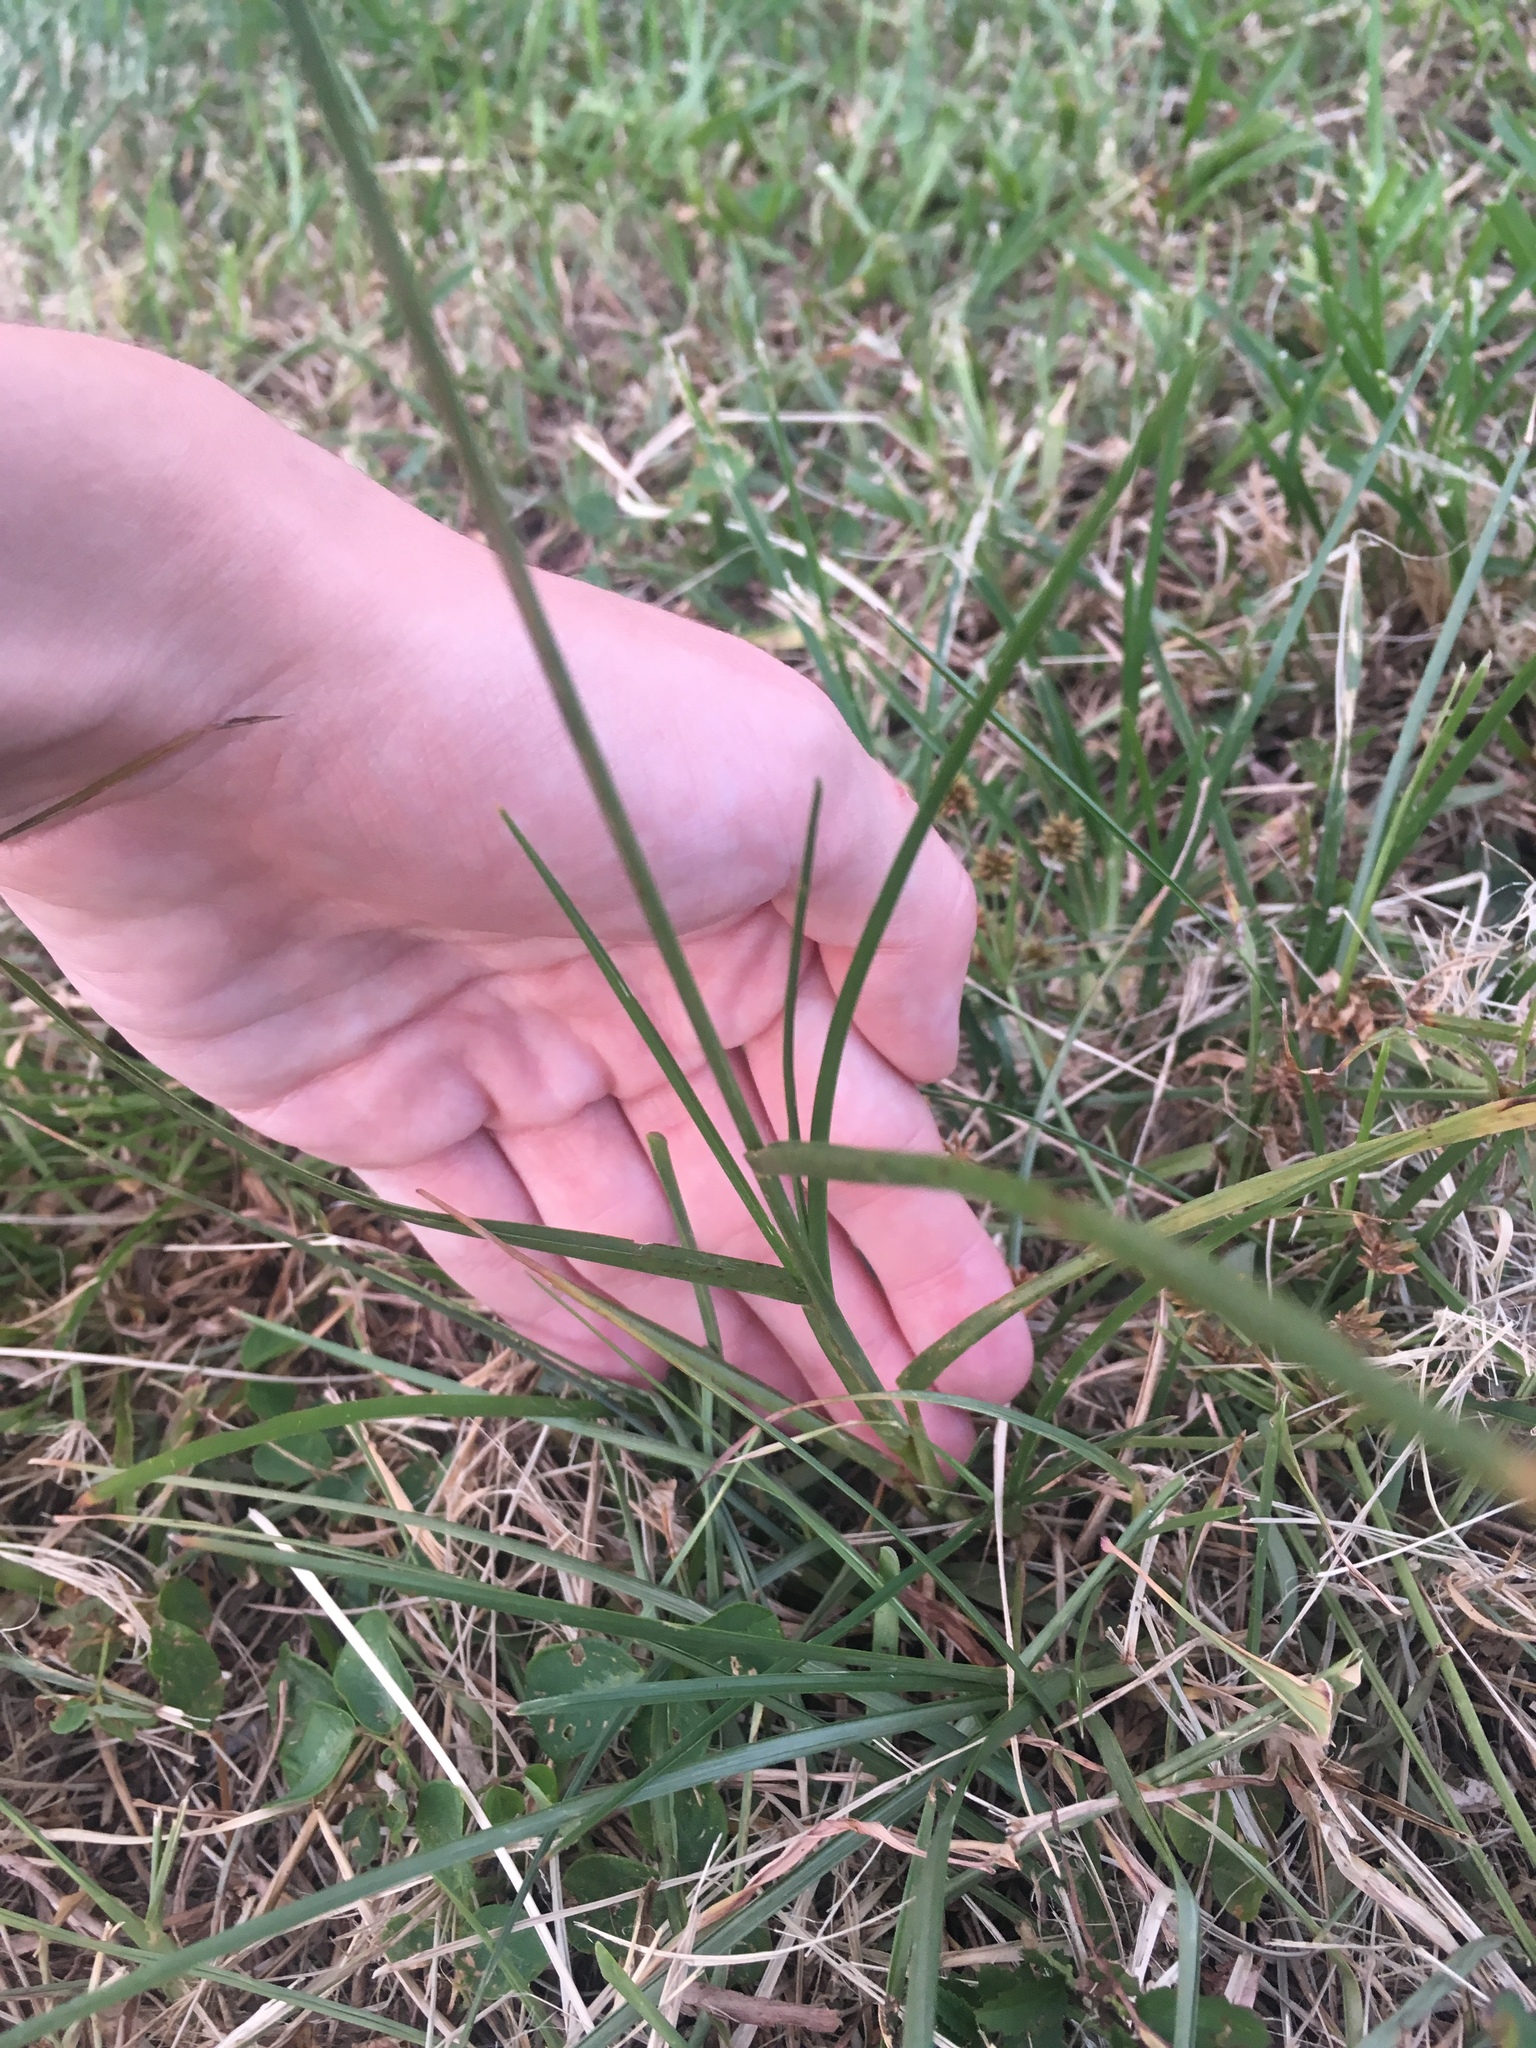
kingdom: Plantae
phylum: Tracheophyta
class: Liliopsida
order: Poales
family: Poaceae
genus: Eleusine
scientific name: Eleusine indica
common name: Yard-grass
